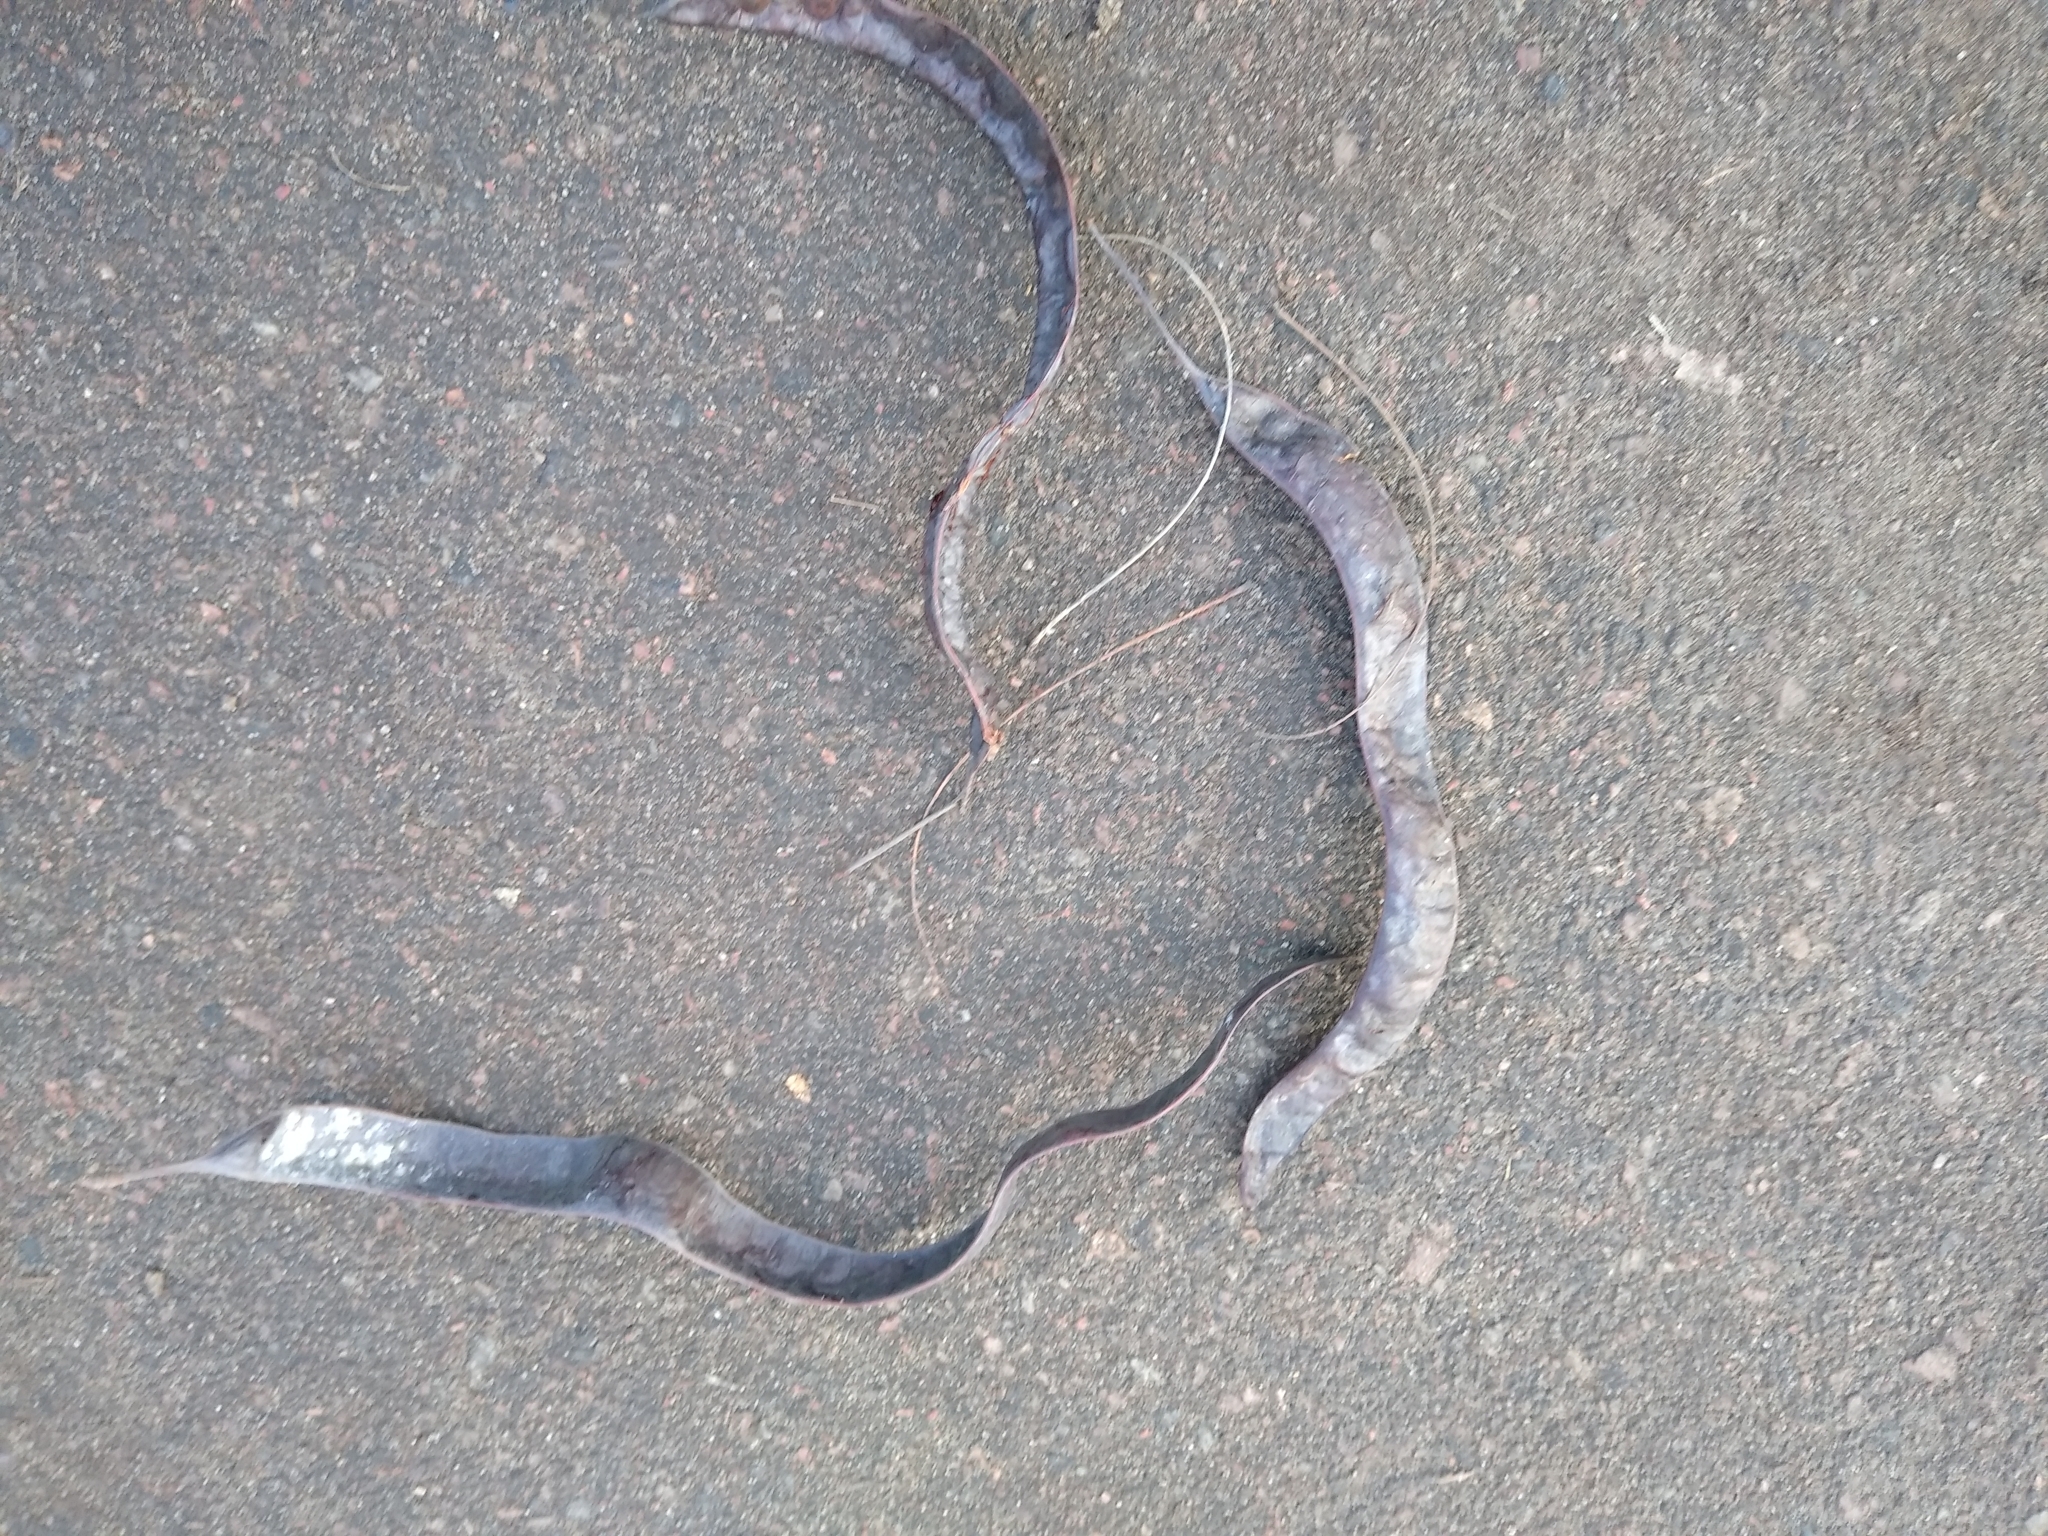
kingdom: Plantae
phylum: Tracheophyta
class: Magnoliopsida
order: Fabales
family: Fabaceae
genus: Gleditsia
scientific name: Gleditsia triacanthos
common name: Common honeylocust
